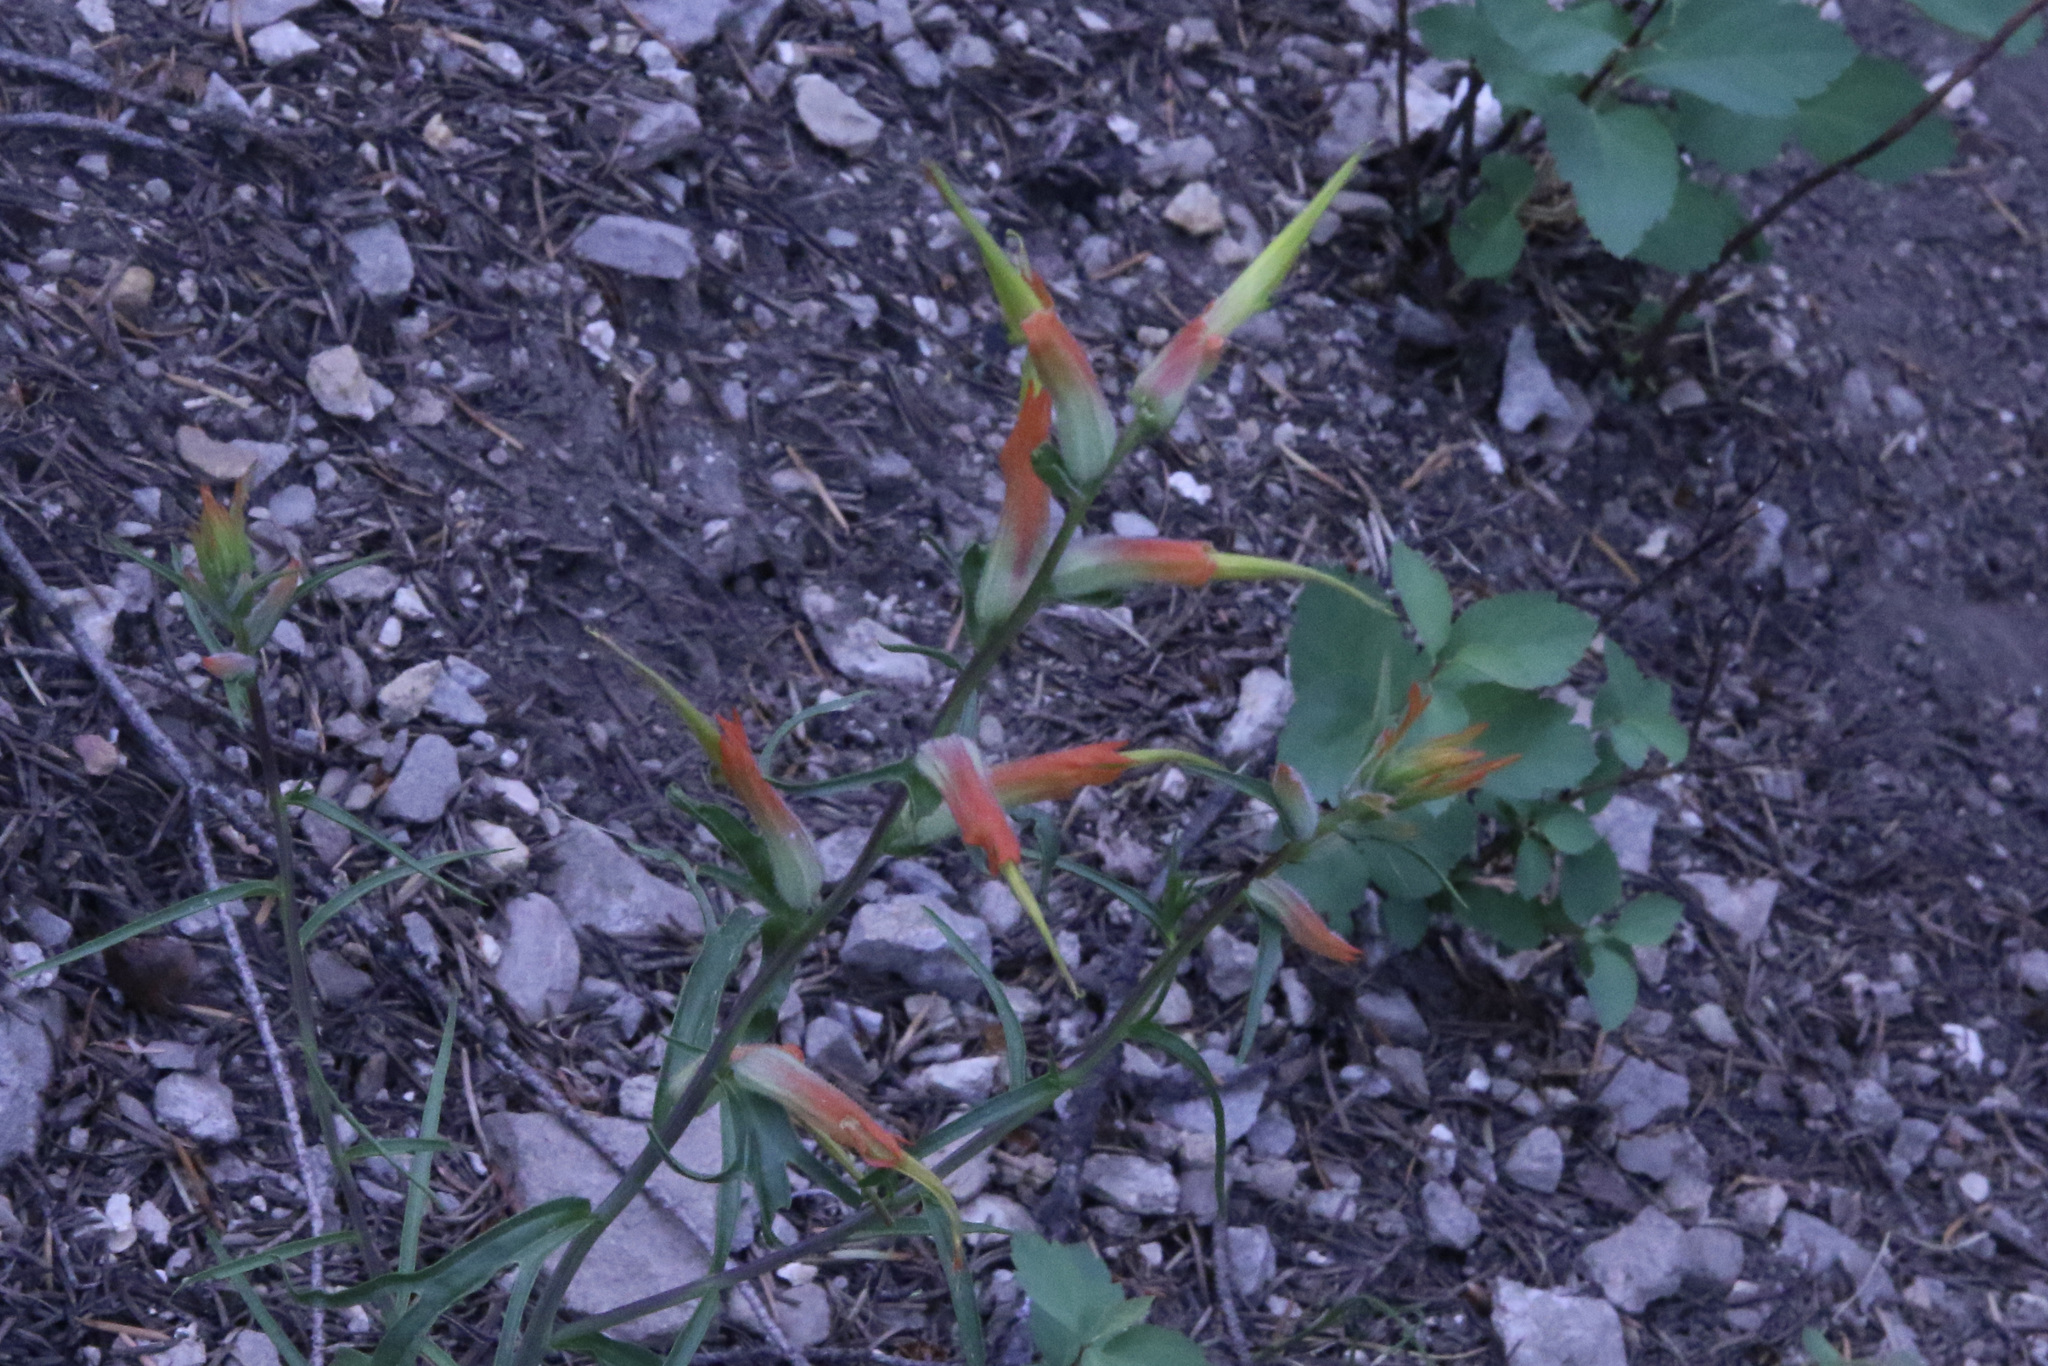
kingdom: Plantae
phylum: Tracheophyta
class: Magnoliopsida
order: Lamiales
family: Orobanchaceae
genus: Castilleja
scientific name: Castilleja linariifolia
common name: Wyoming paintbrush
